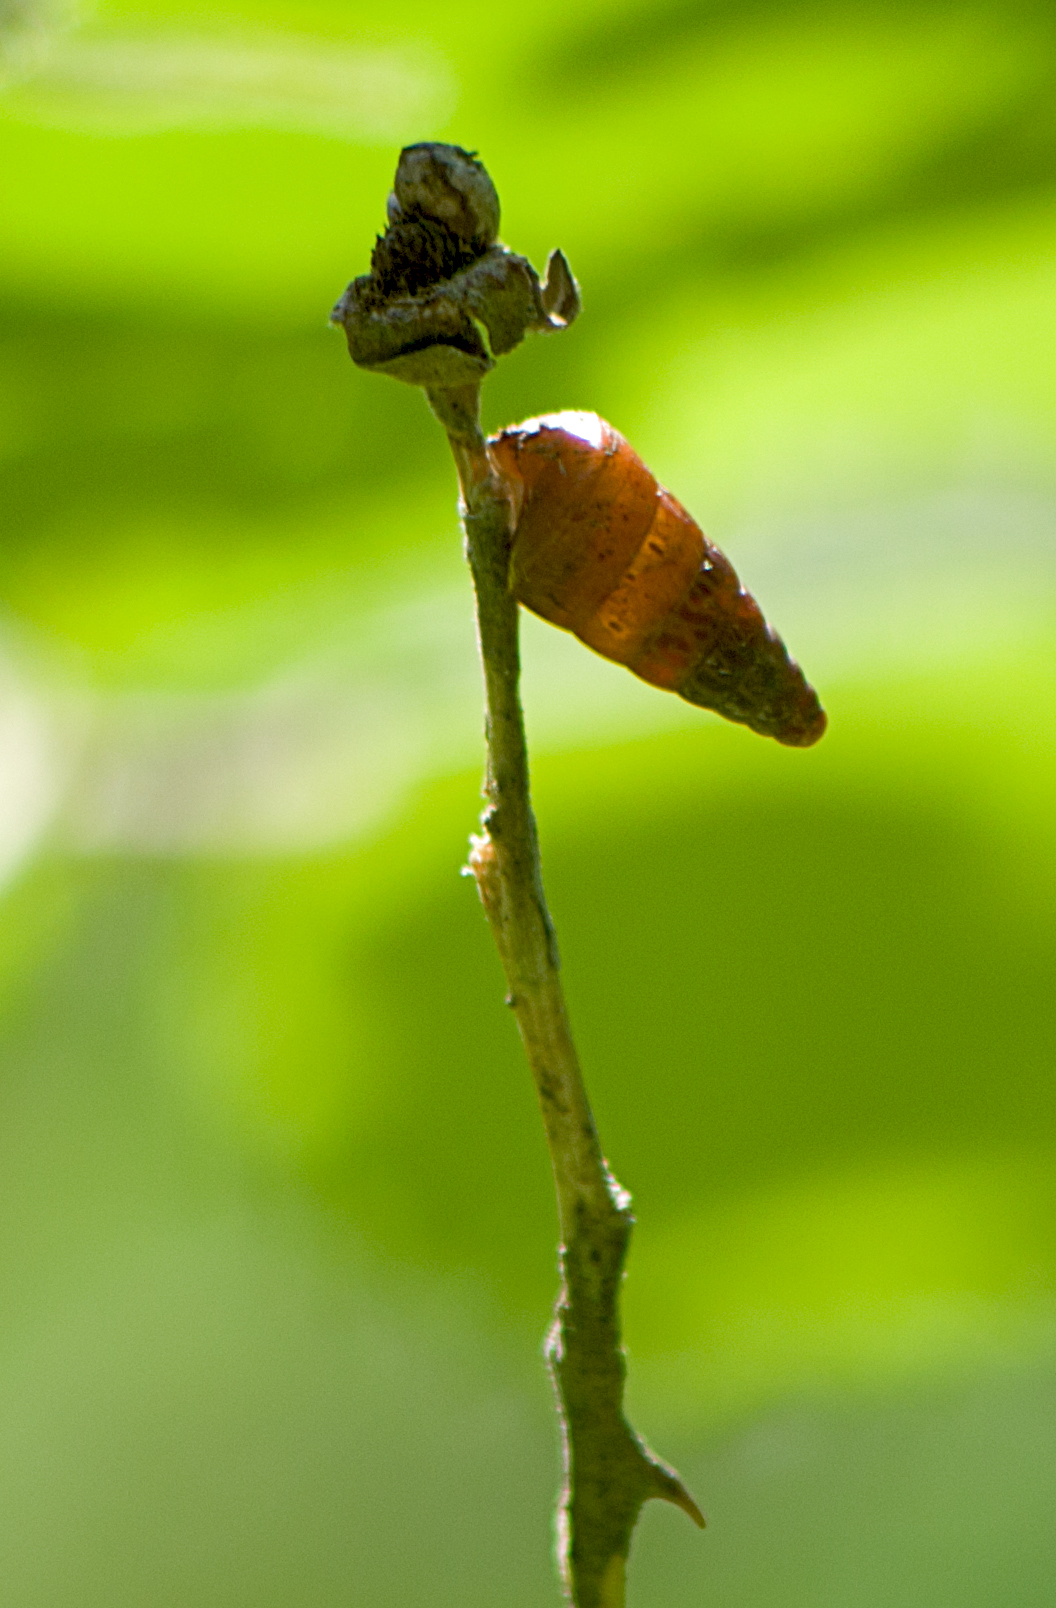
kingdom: Animalia
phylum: Mollusca
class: Gastropoda
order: Stylommatophora
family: Geomitridae
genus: Cochlicella
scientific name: Cochlicella acuta
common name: Pointed snail
